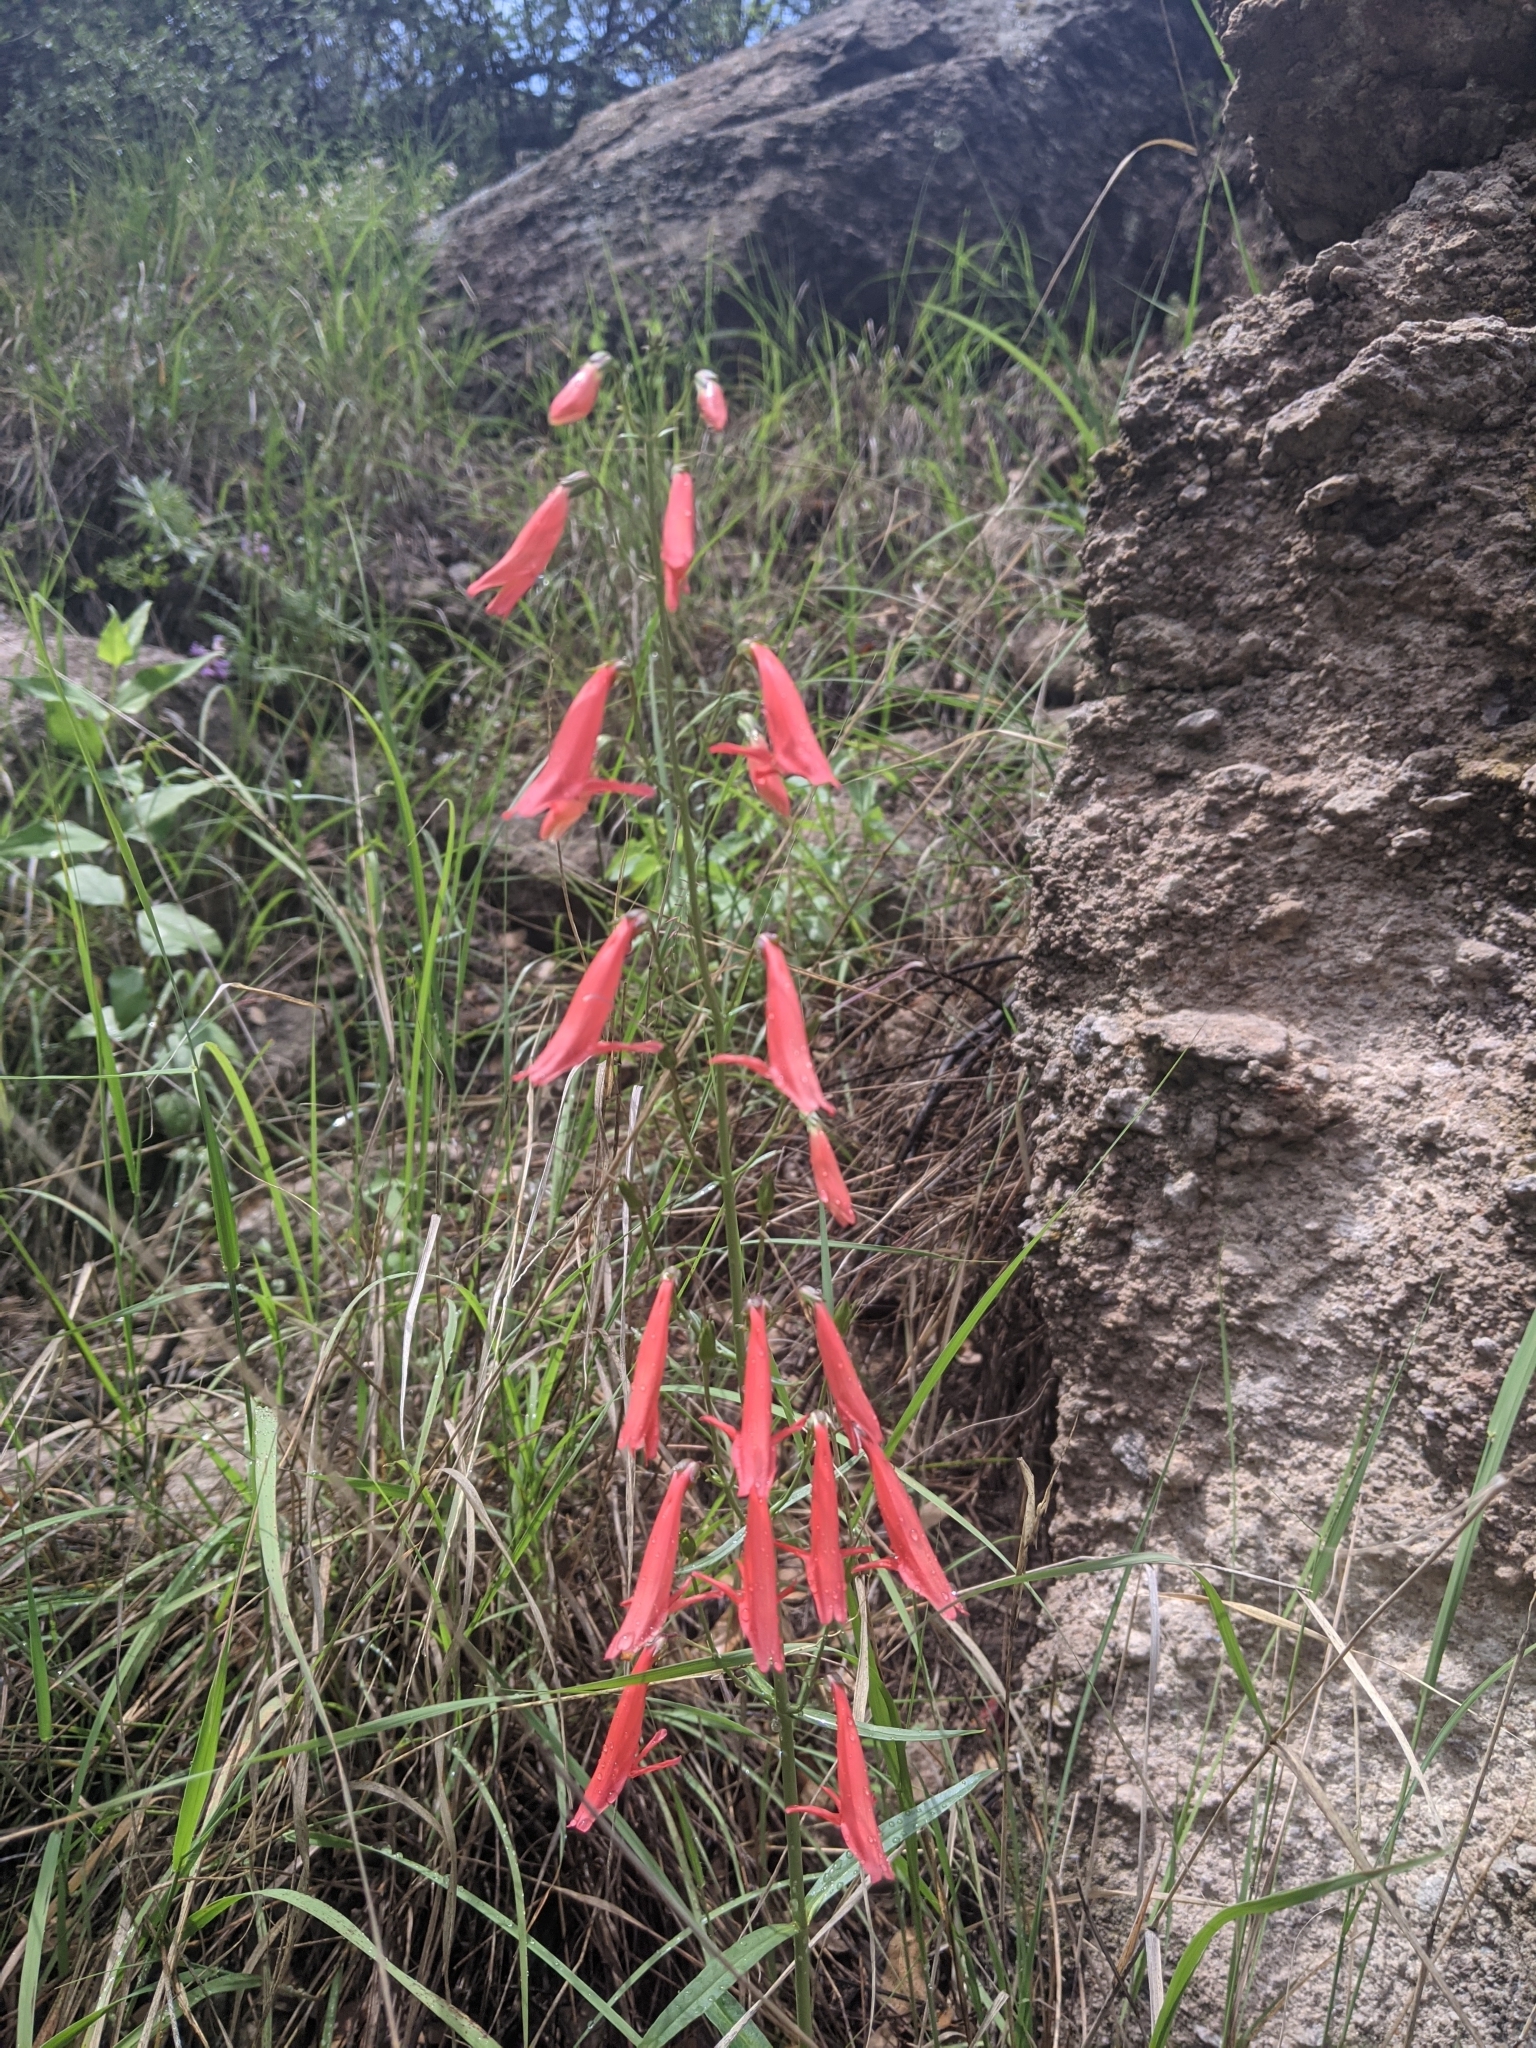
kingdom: Plantae
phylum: Tracheophyta
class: Magnoliopsida
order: Lamiales
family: Plantaginaceae
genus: Penstemon
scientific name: Penstemon barbatus
